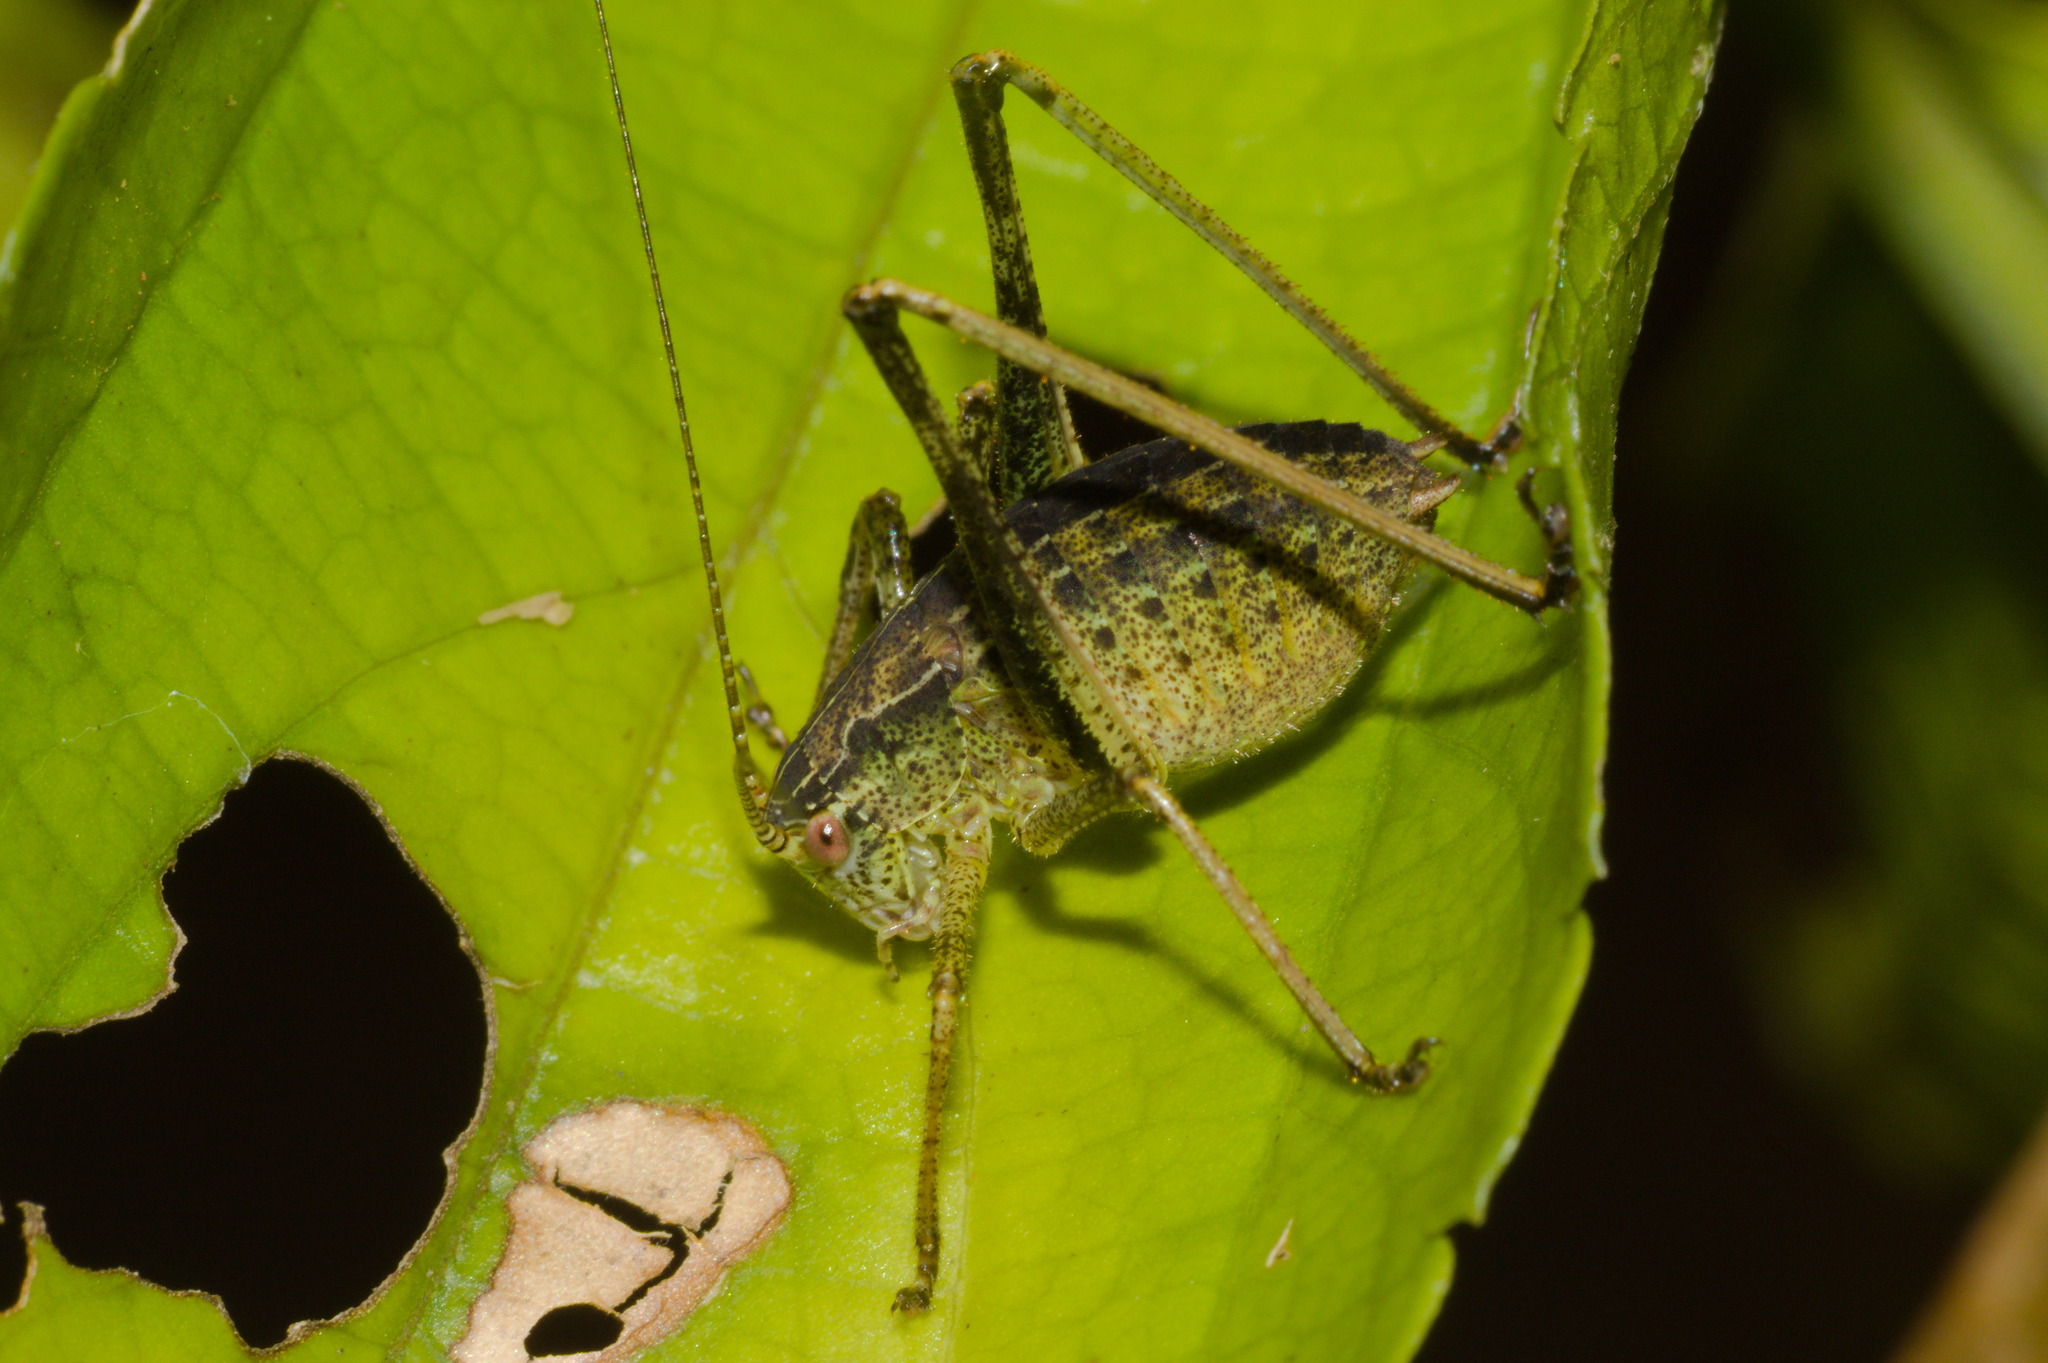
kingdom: Animalia
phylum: Arthropoda
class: Insecta
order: Orthoptera
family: Tettigoniidae
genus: Anisophya
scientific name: Anisophya melanochloris
